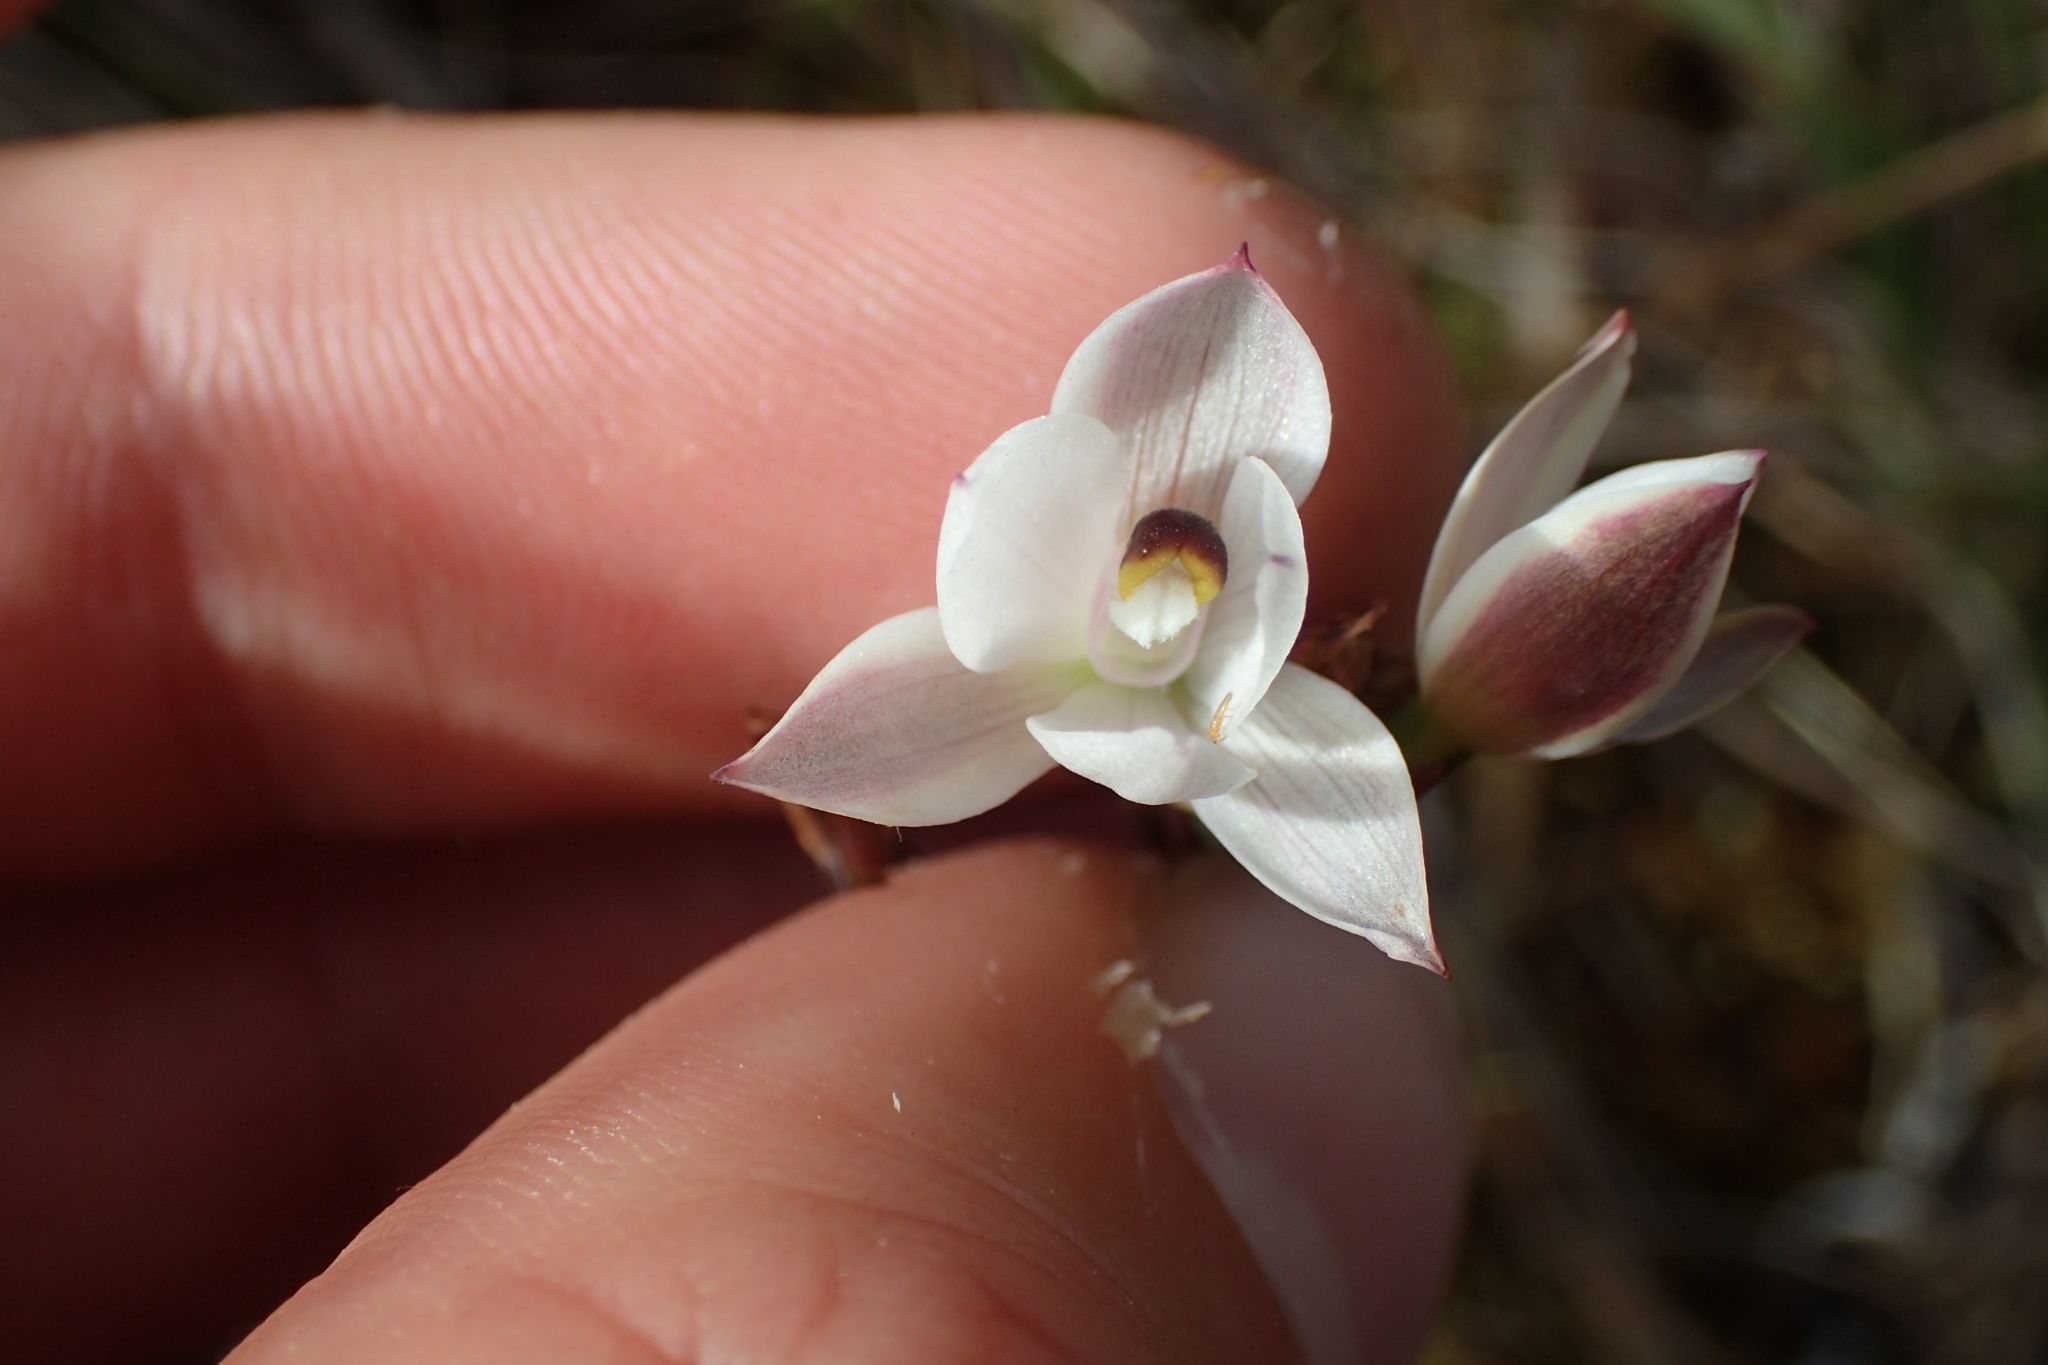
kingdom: Plantae
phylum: Tracheophyta
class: Liliopsida
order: Asparagales
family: Orchidaceae
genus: Thelymitra
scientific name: Thelymitra longifolia
